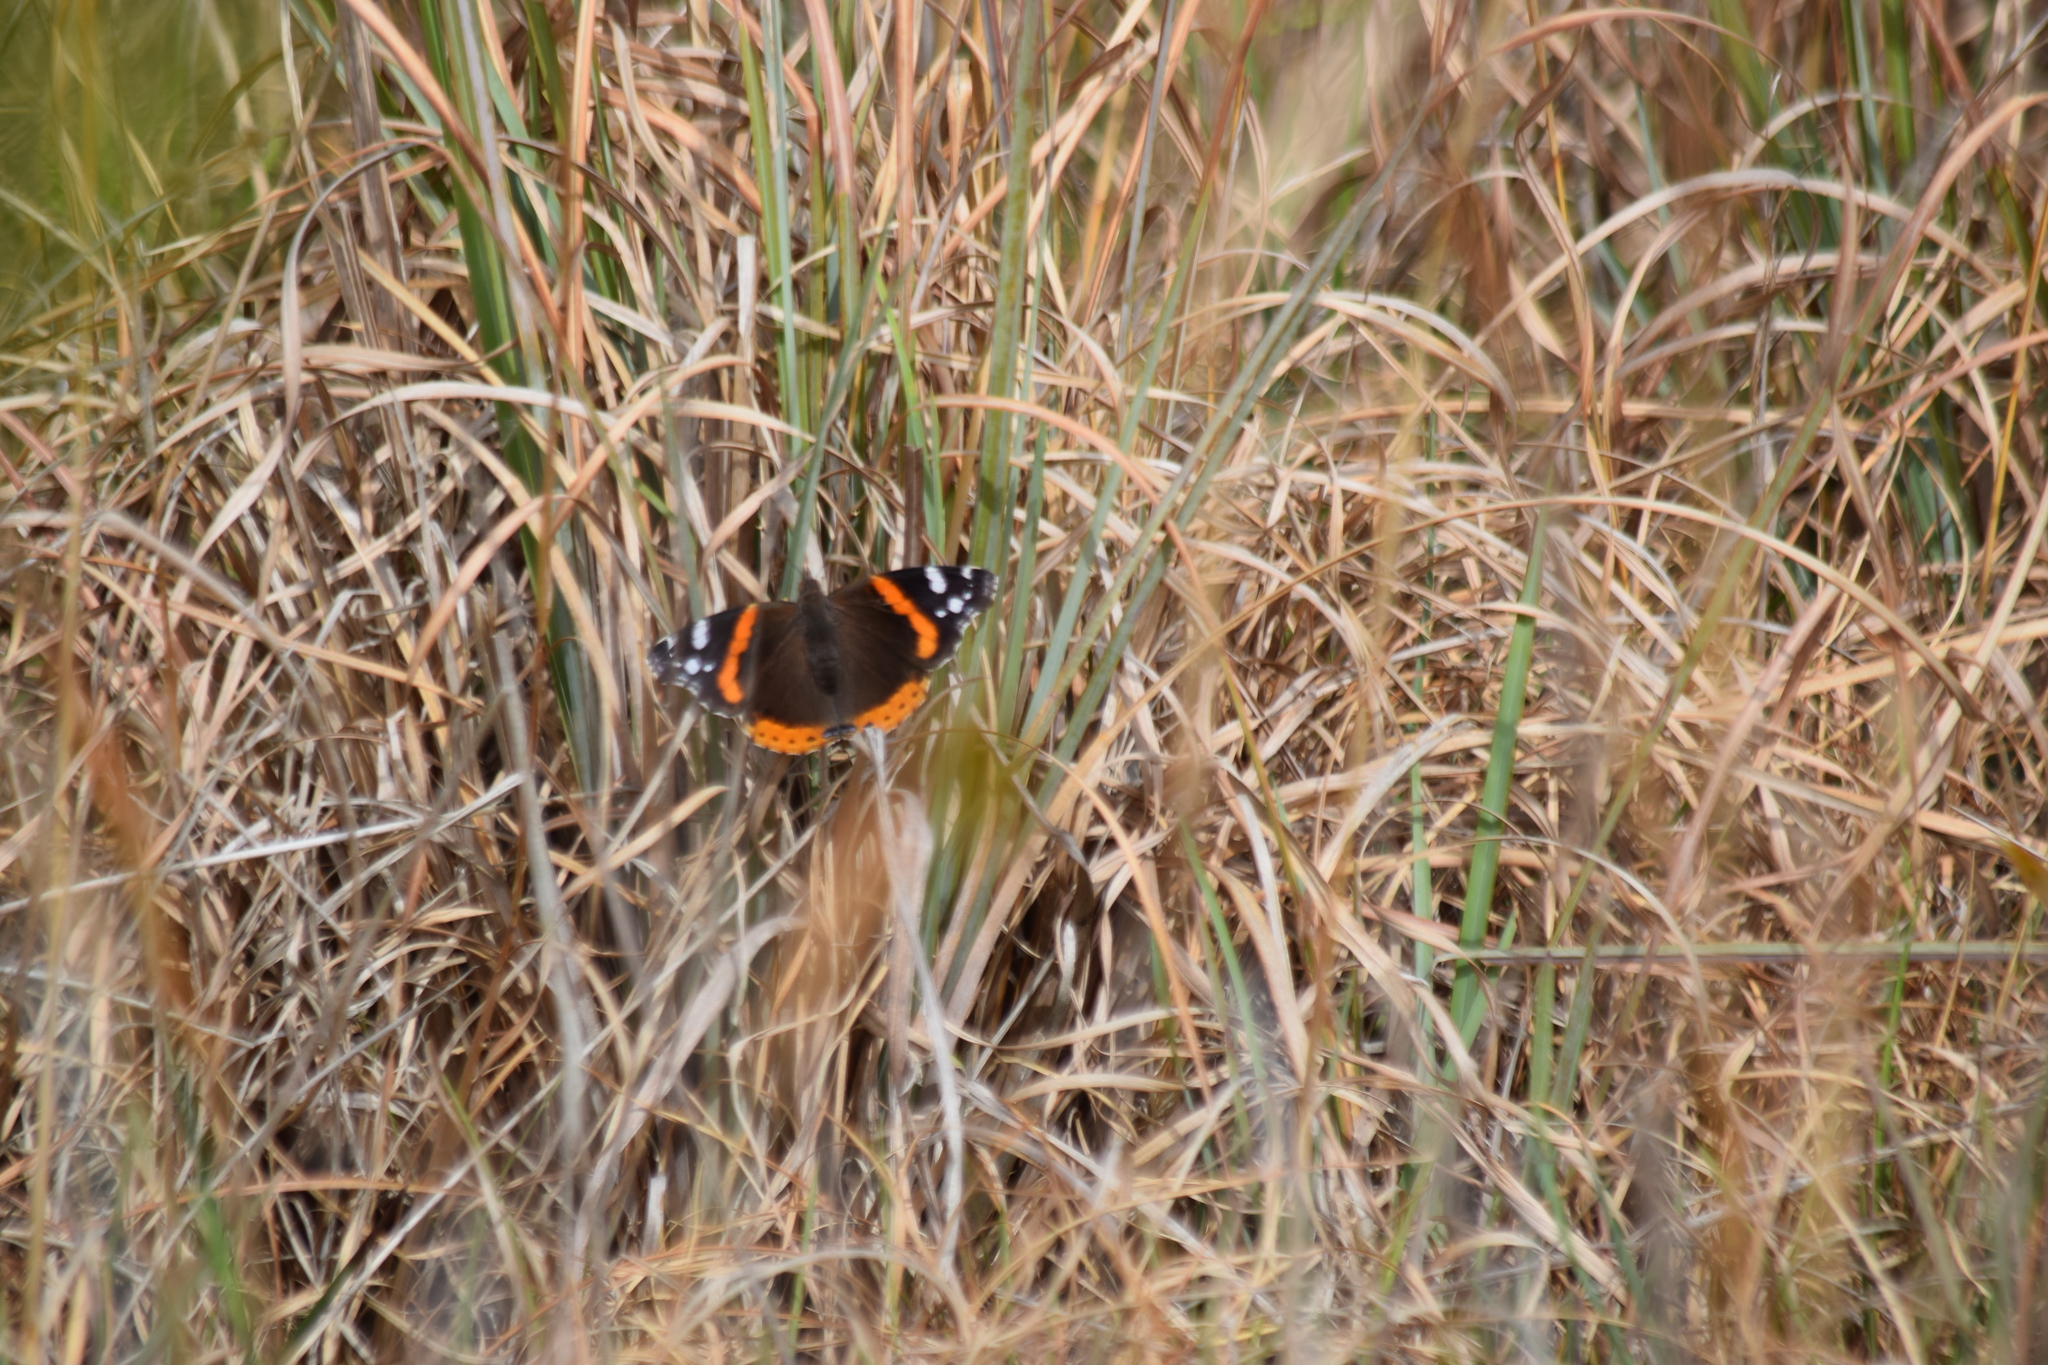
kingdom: Animalia
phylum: Arthropoda
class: Insecta
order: Lepidoptera
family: Nymphalidae
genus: Vanessa
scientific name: Vanessa atalanta
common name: Red admiral
